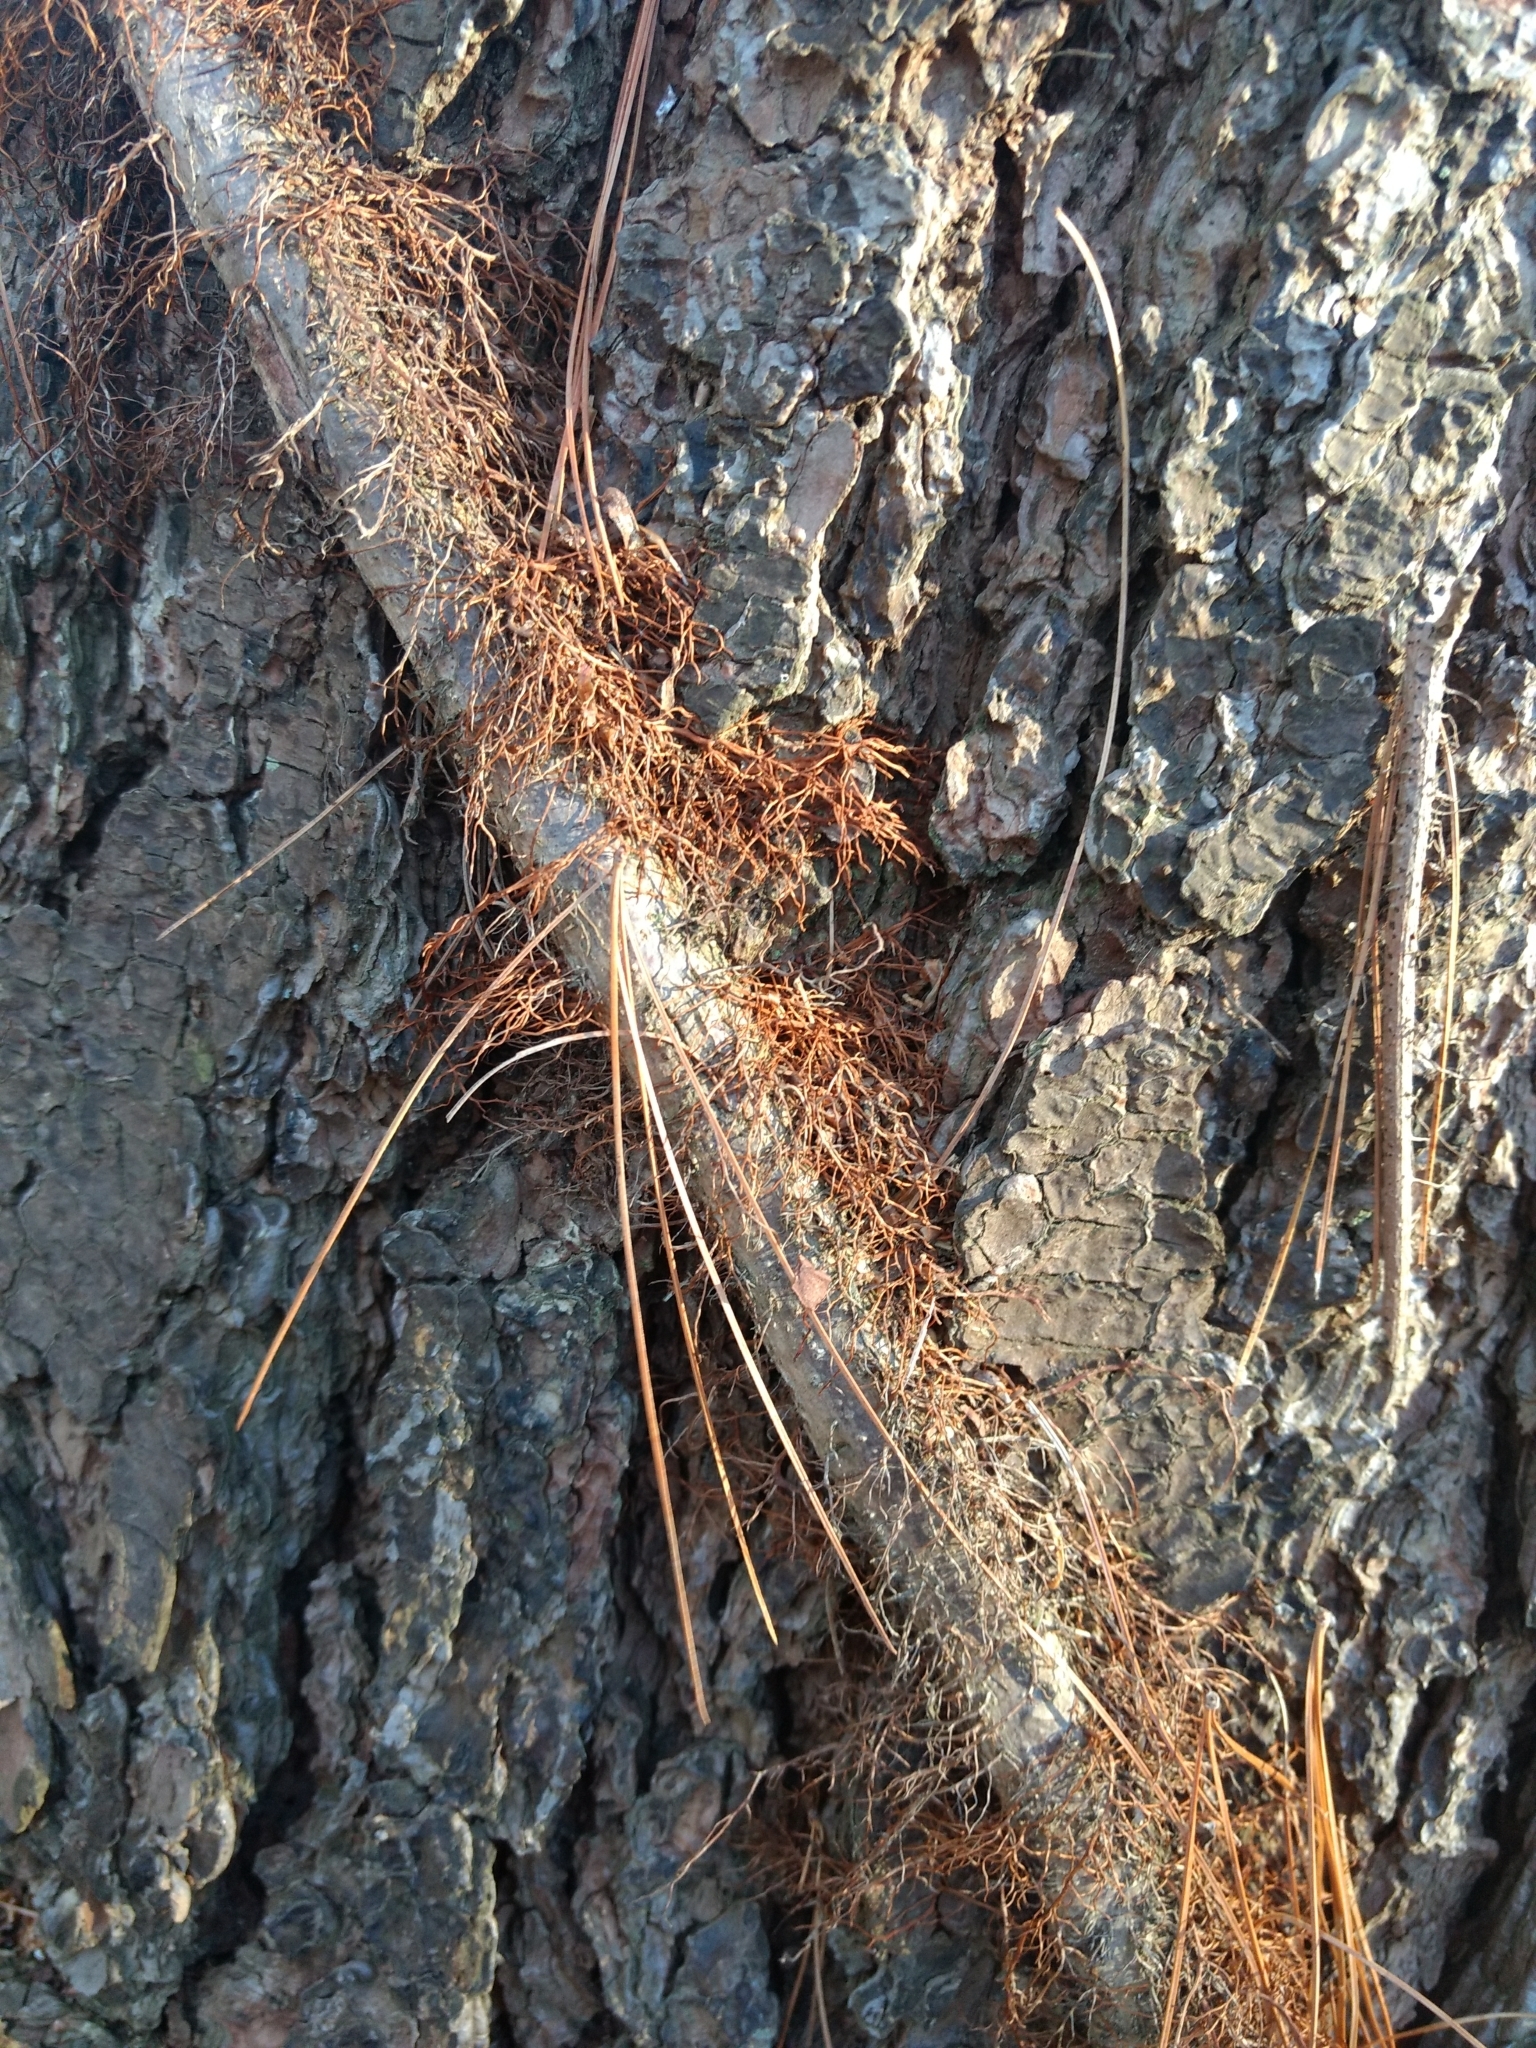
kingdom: Plantae
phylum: Tracheophyta
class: Magnoliopsida
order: Sapindales
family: Anacardiaceae
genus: Toxicodendron
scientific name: Toxicodendron radicans
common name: Poison ivy
